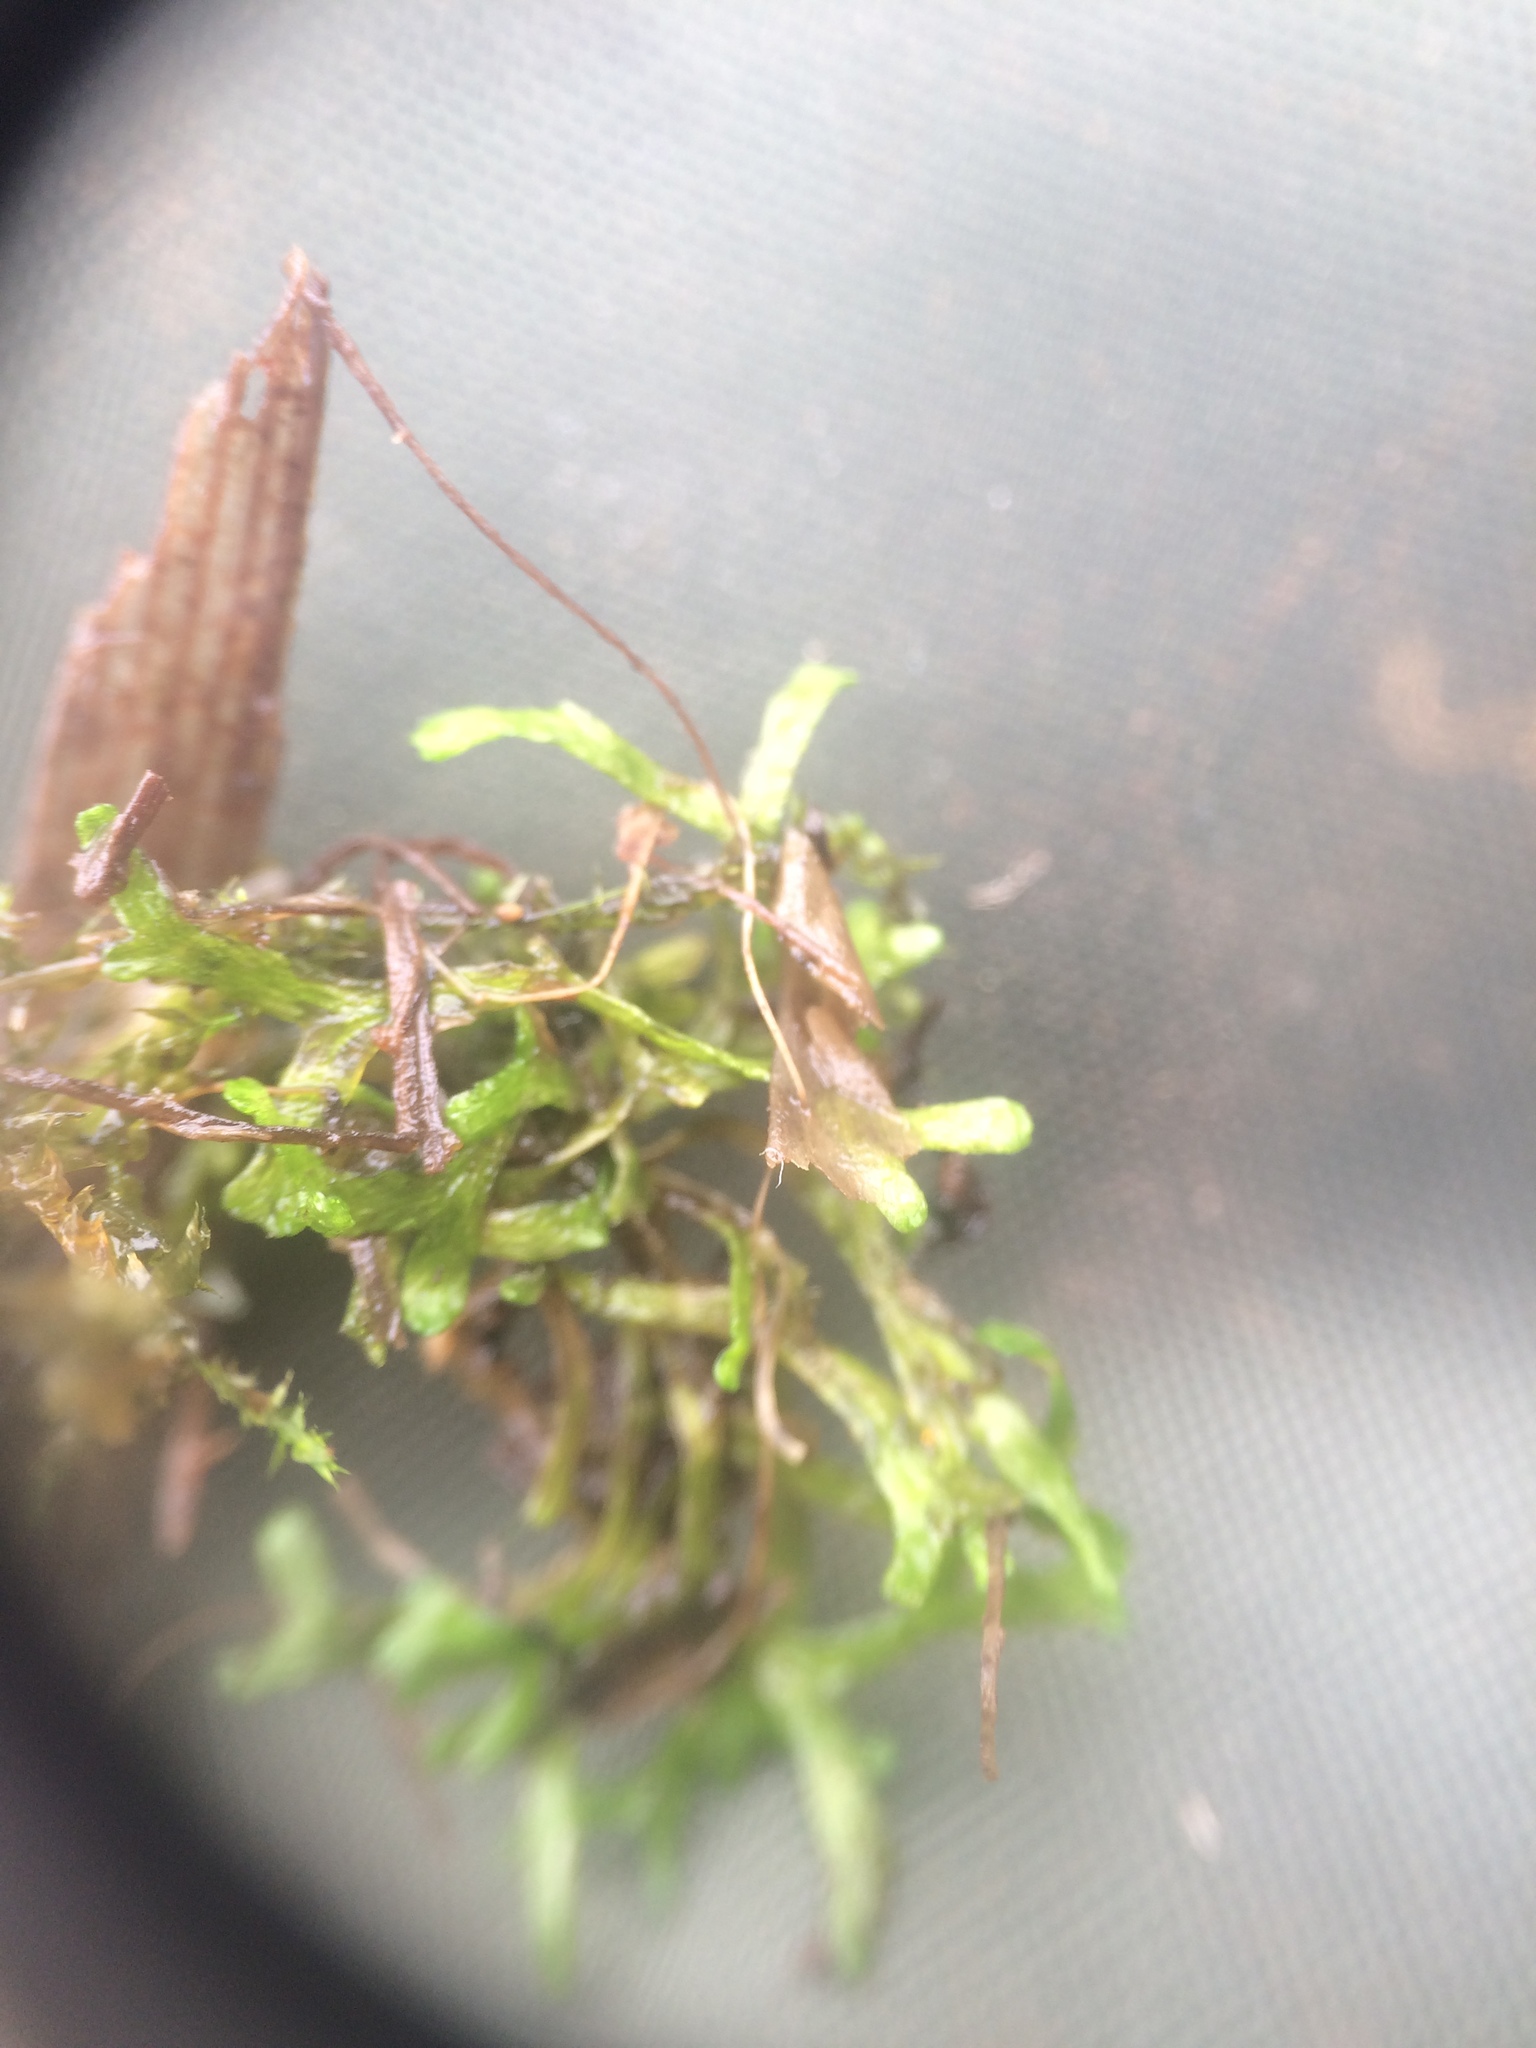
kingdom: Plantae
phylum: Marchantiophyta
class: Marchantiopsida
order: Marchantiales
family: Ricciaceae
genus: Riccia
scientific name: Riccia fluitans
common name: Floating crystalwort
